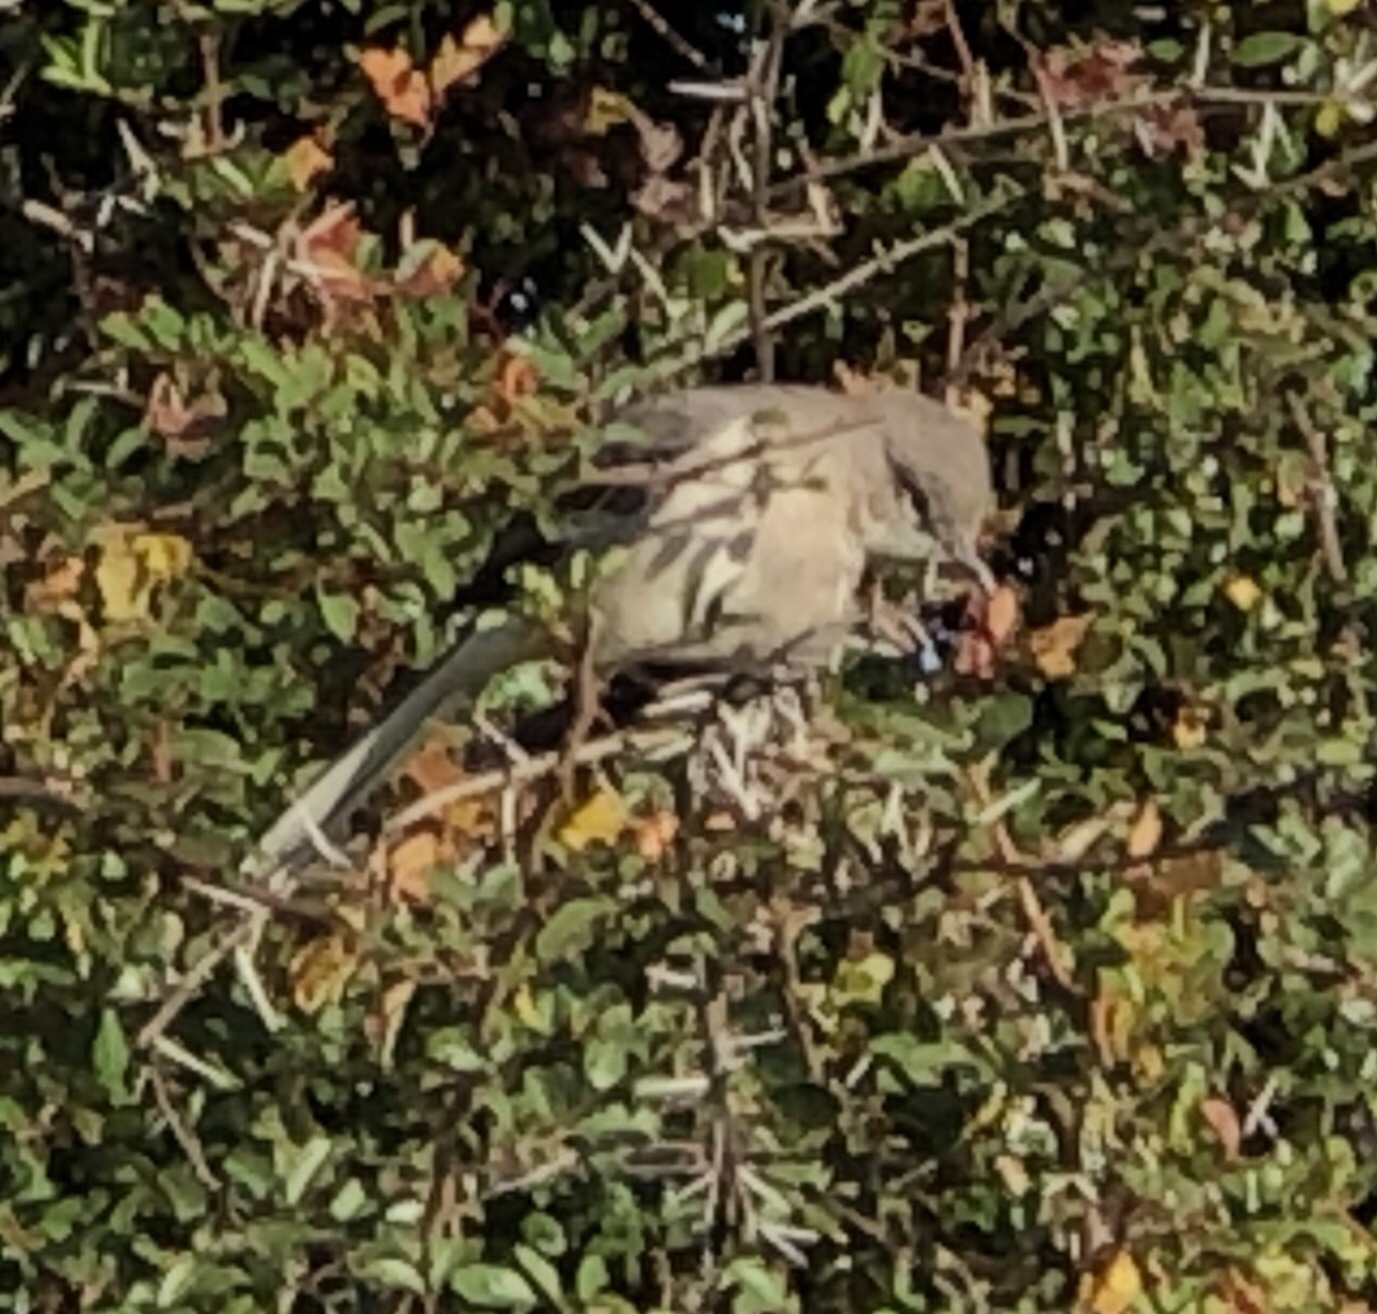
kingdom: Animalia
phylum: Chordata
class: Aves
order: Passeriformes
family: Mimidae
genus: Mimus
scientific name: Mimus polyglottos
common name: Northern mockingbird
